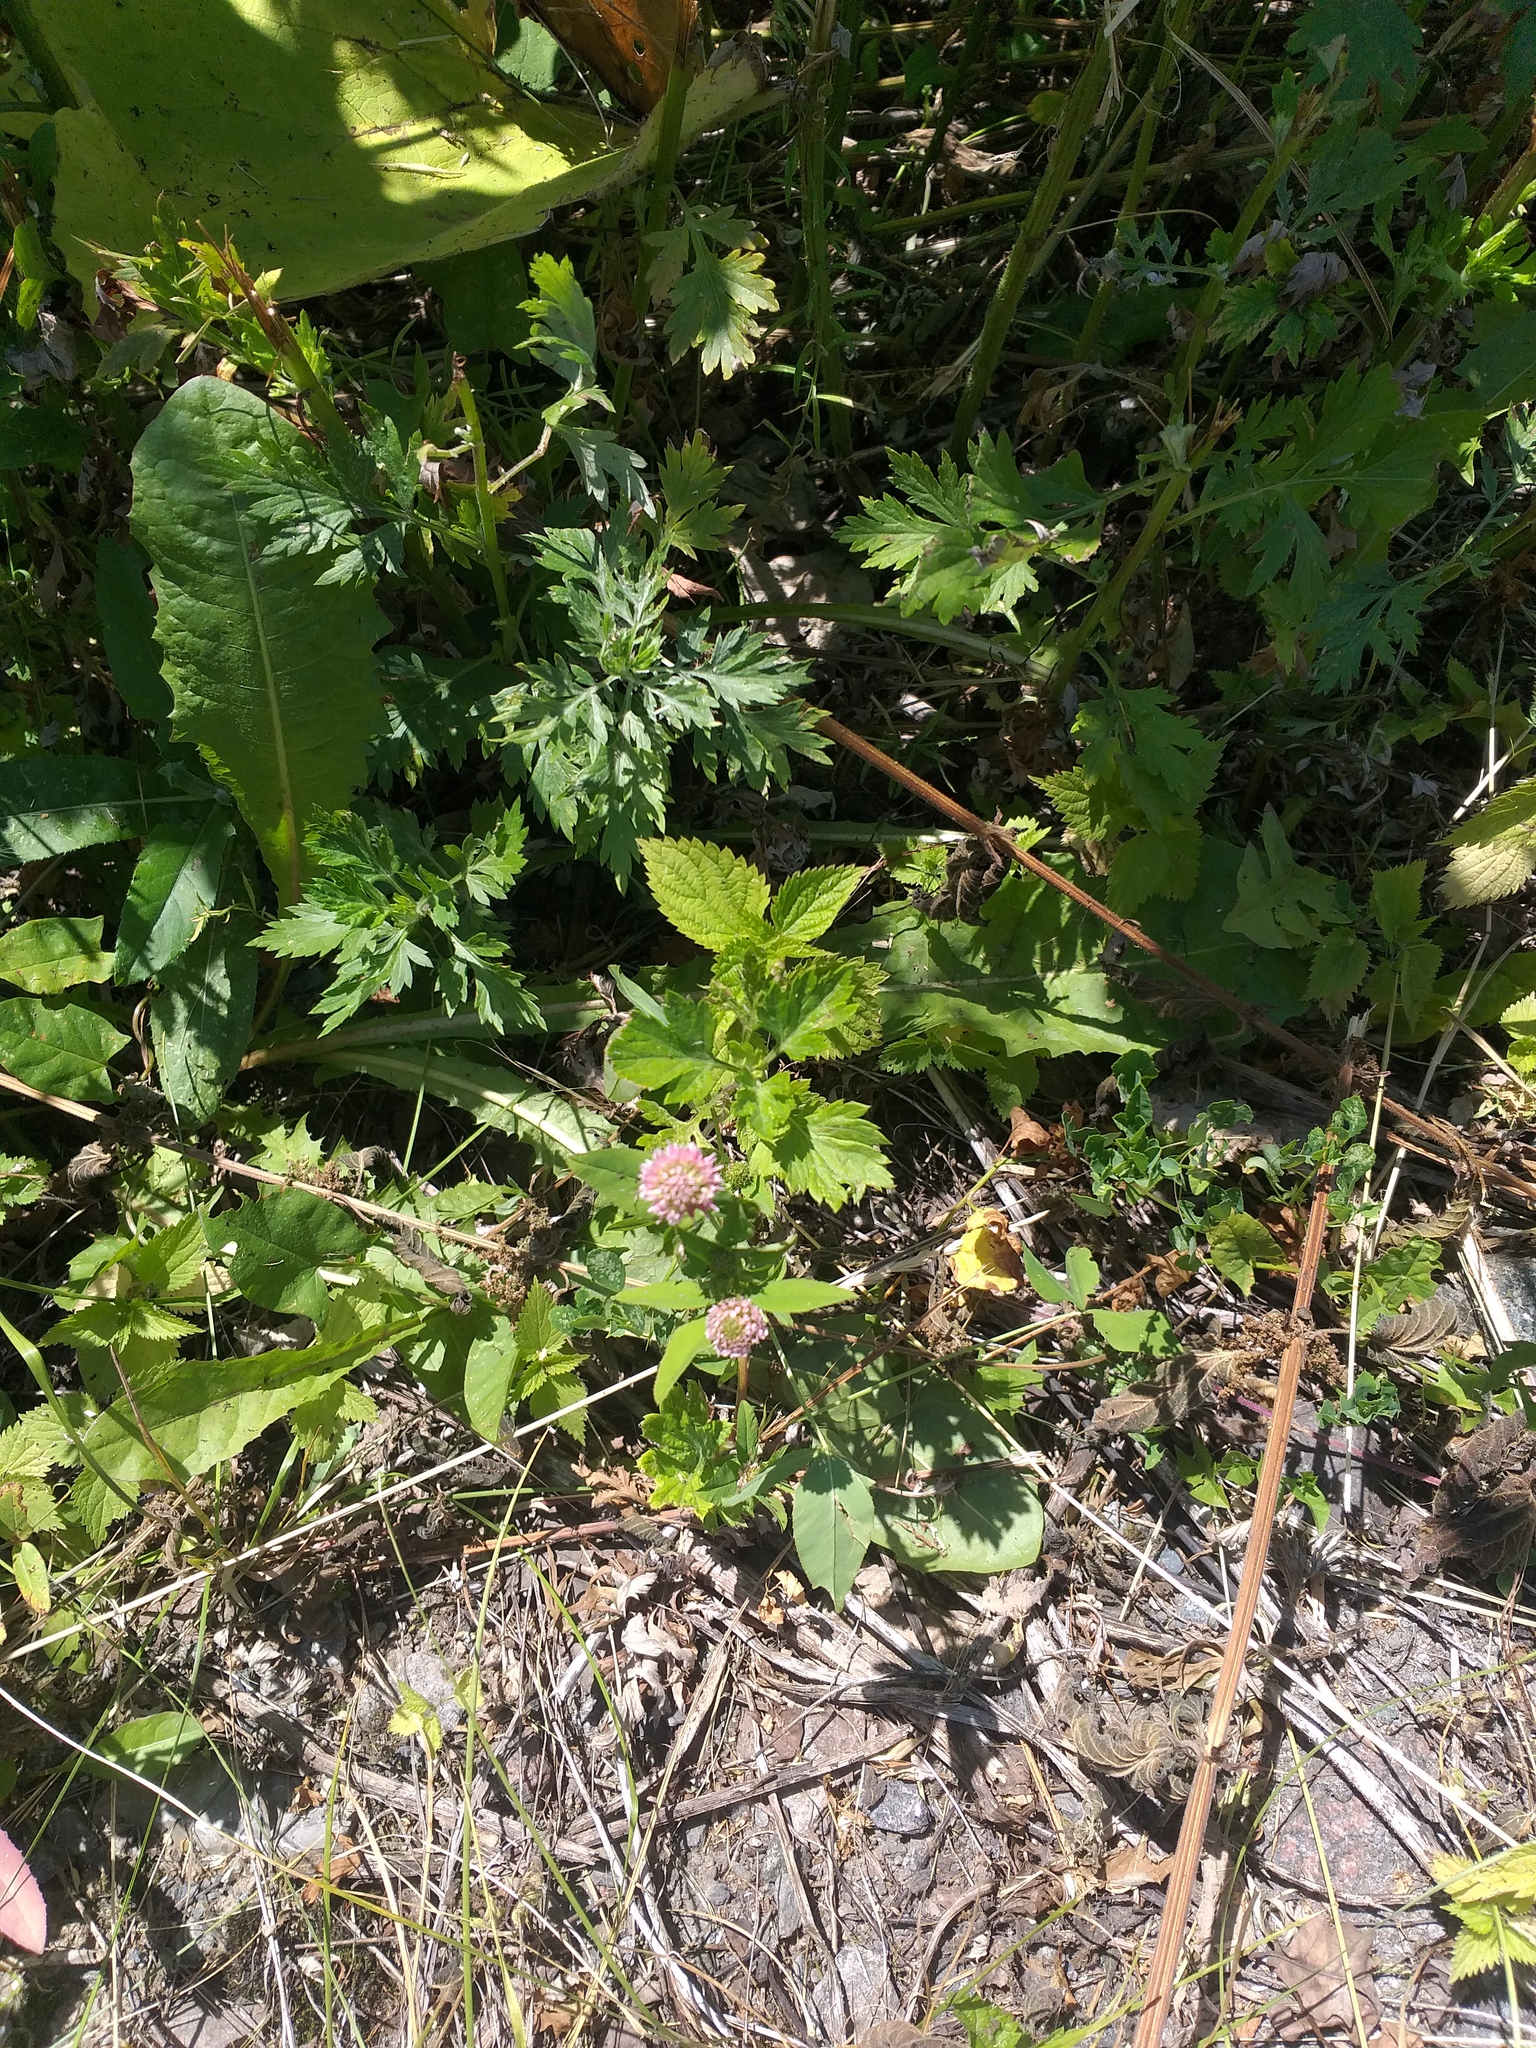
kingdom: Plantae
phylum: Tracheophyta
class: Magnoliopsida
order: Fabales
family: Fabaceae
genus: Trifolium
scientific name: Trifolium hybridum
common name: Alsike clover
